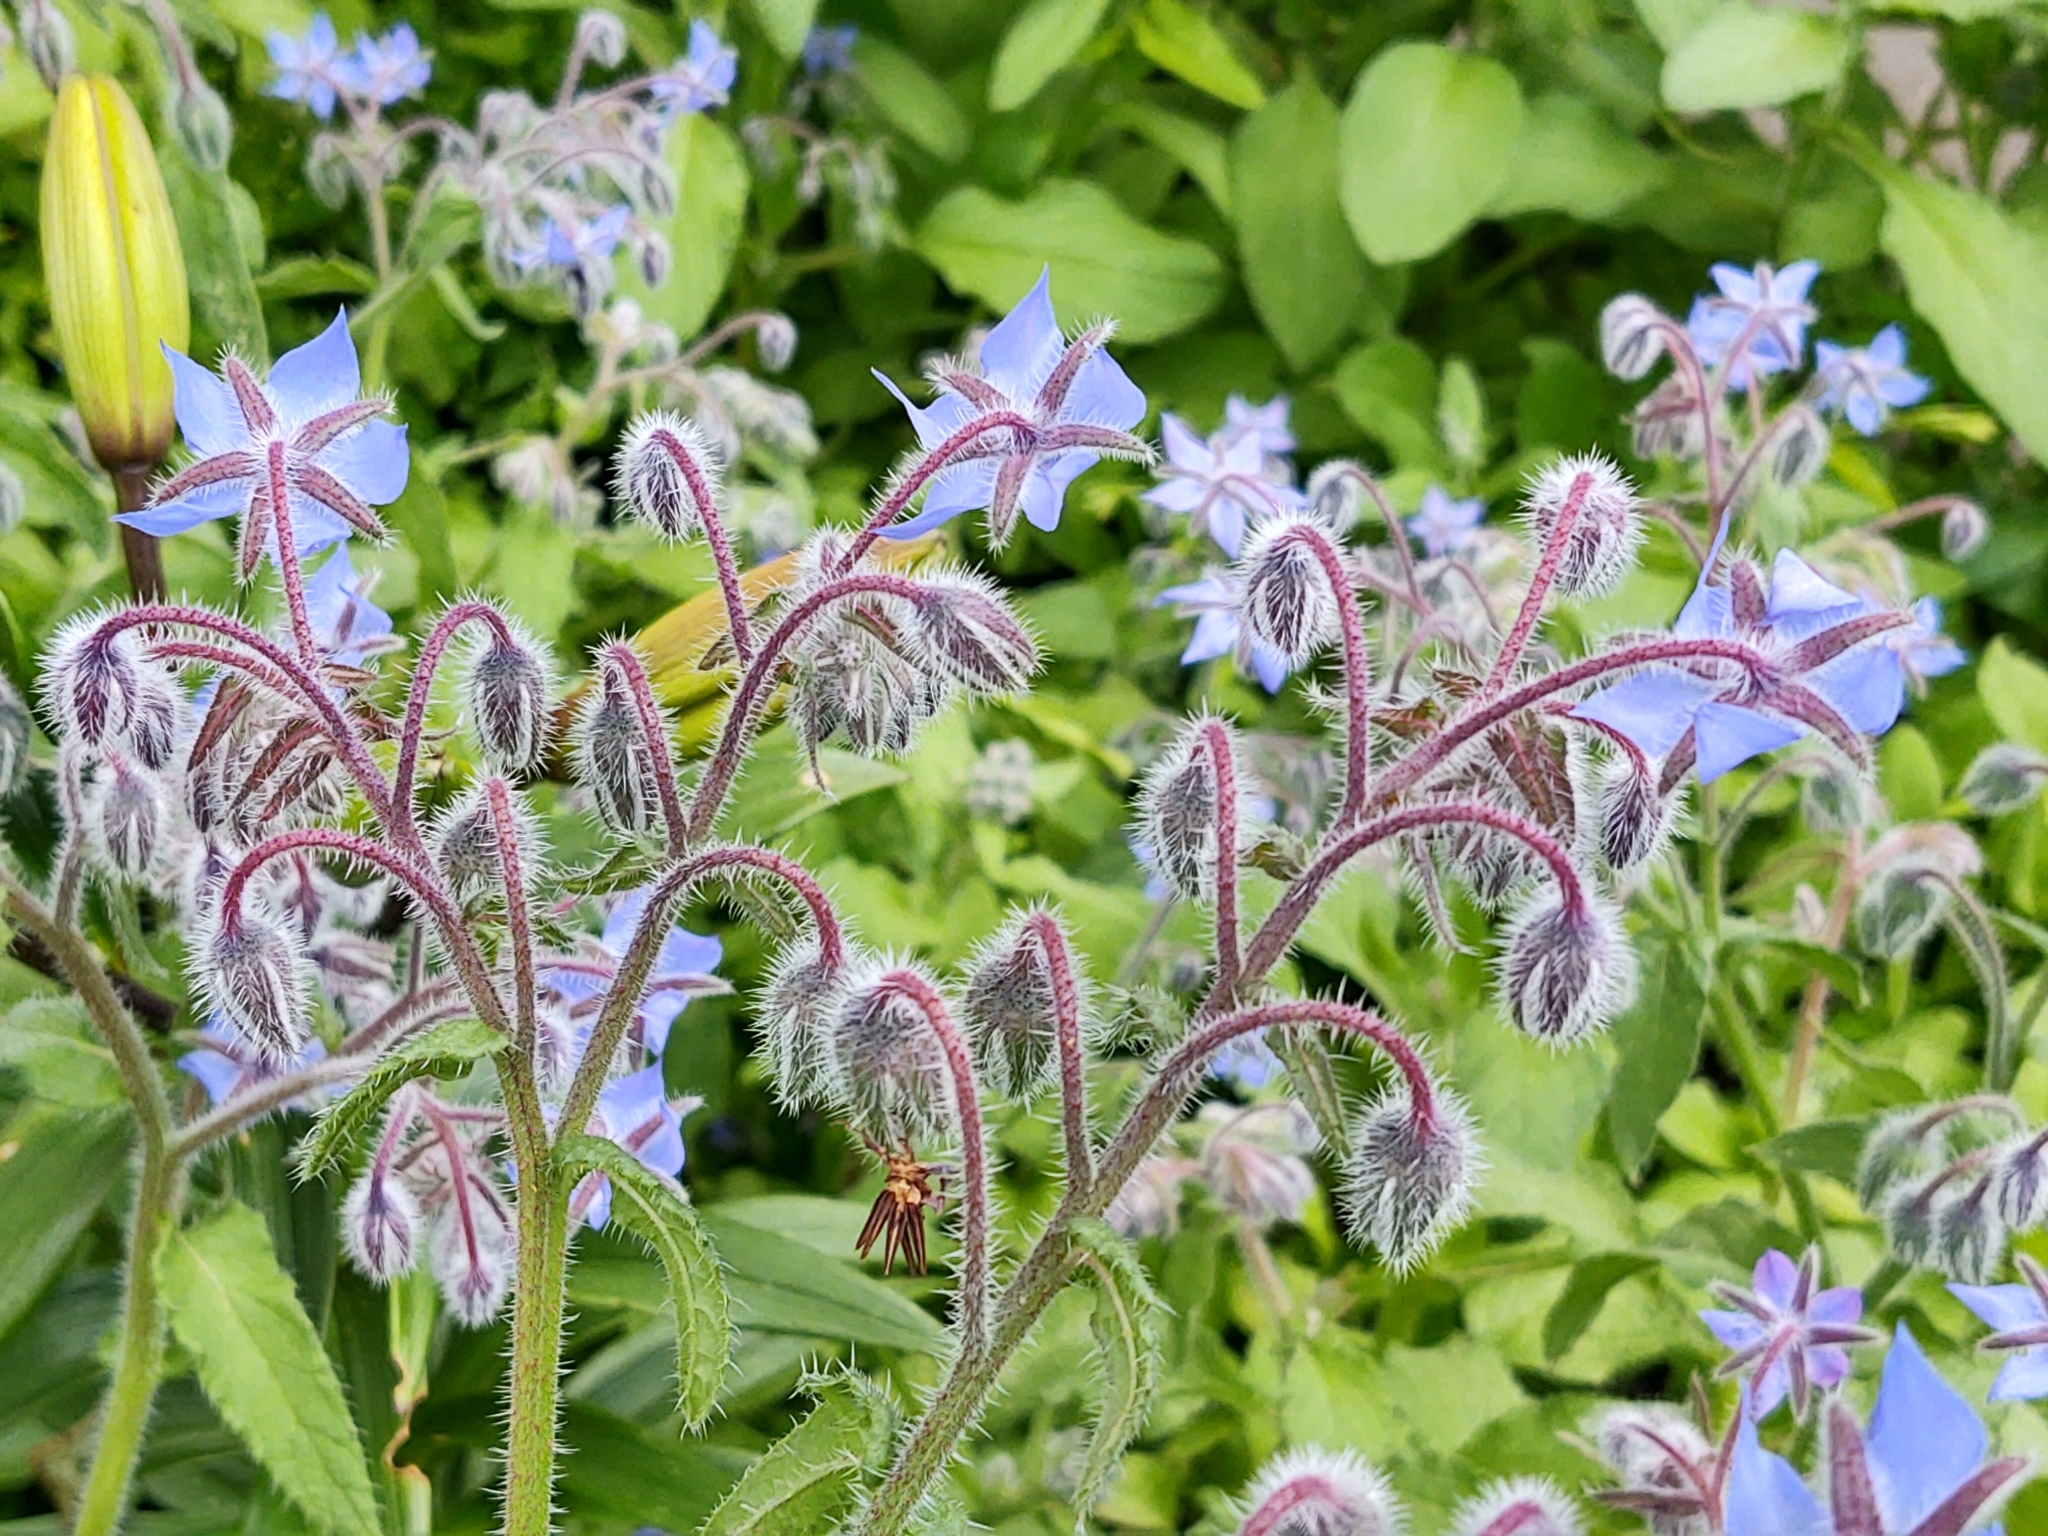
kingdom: Plantae
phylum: Tracheophyta
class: Magnoliopsida
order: Boraginales
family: Boraginaceae
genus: Borago
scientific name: Borago officinalis
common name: Borage
